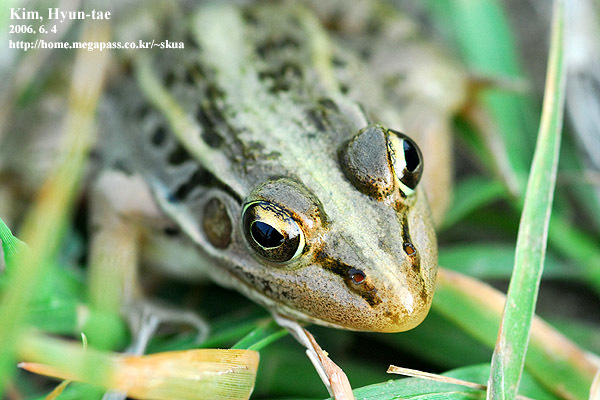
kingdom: Animalia
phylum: Chordata
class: Amphibia
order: Anura
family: Ranidae
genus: Pelophylax
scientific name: Pelophylax nigromaculatus
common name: Black-spotted pond frog
